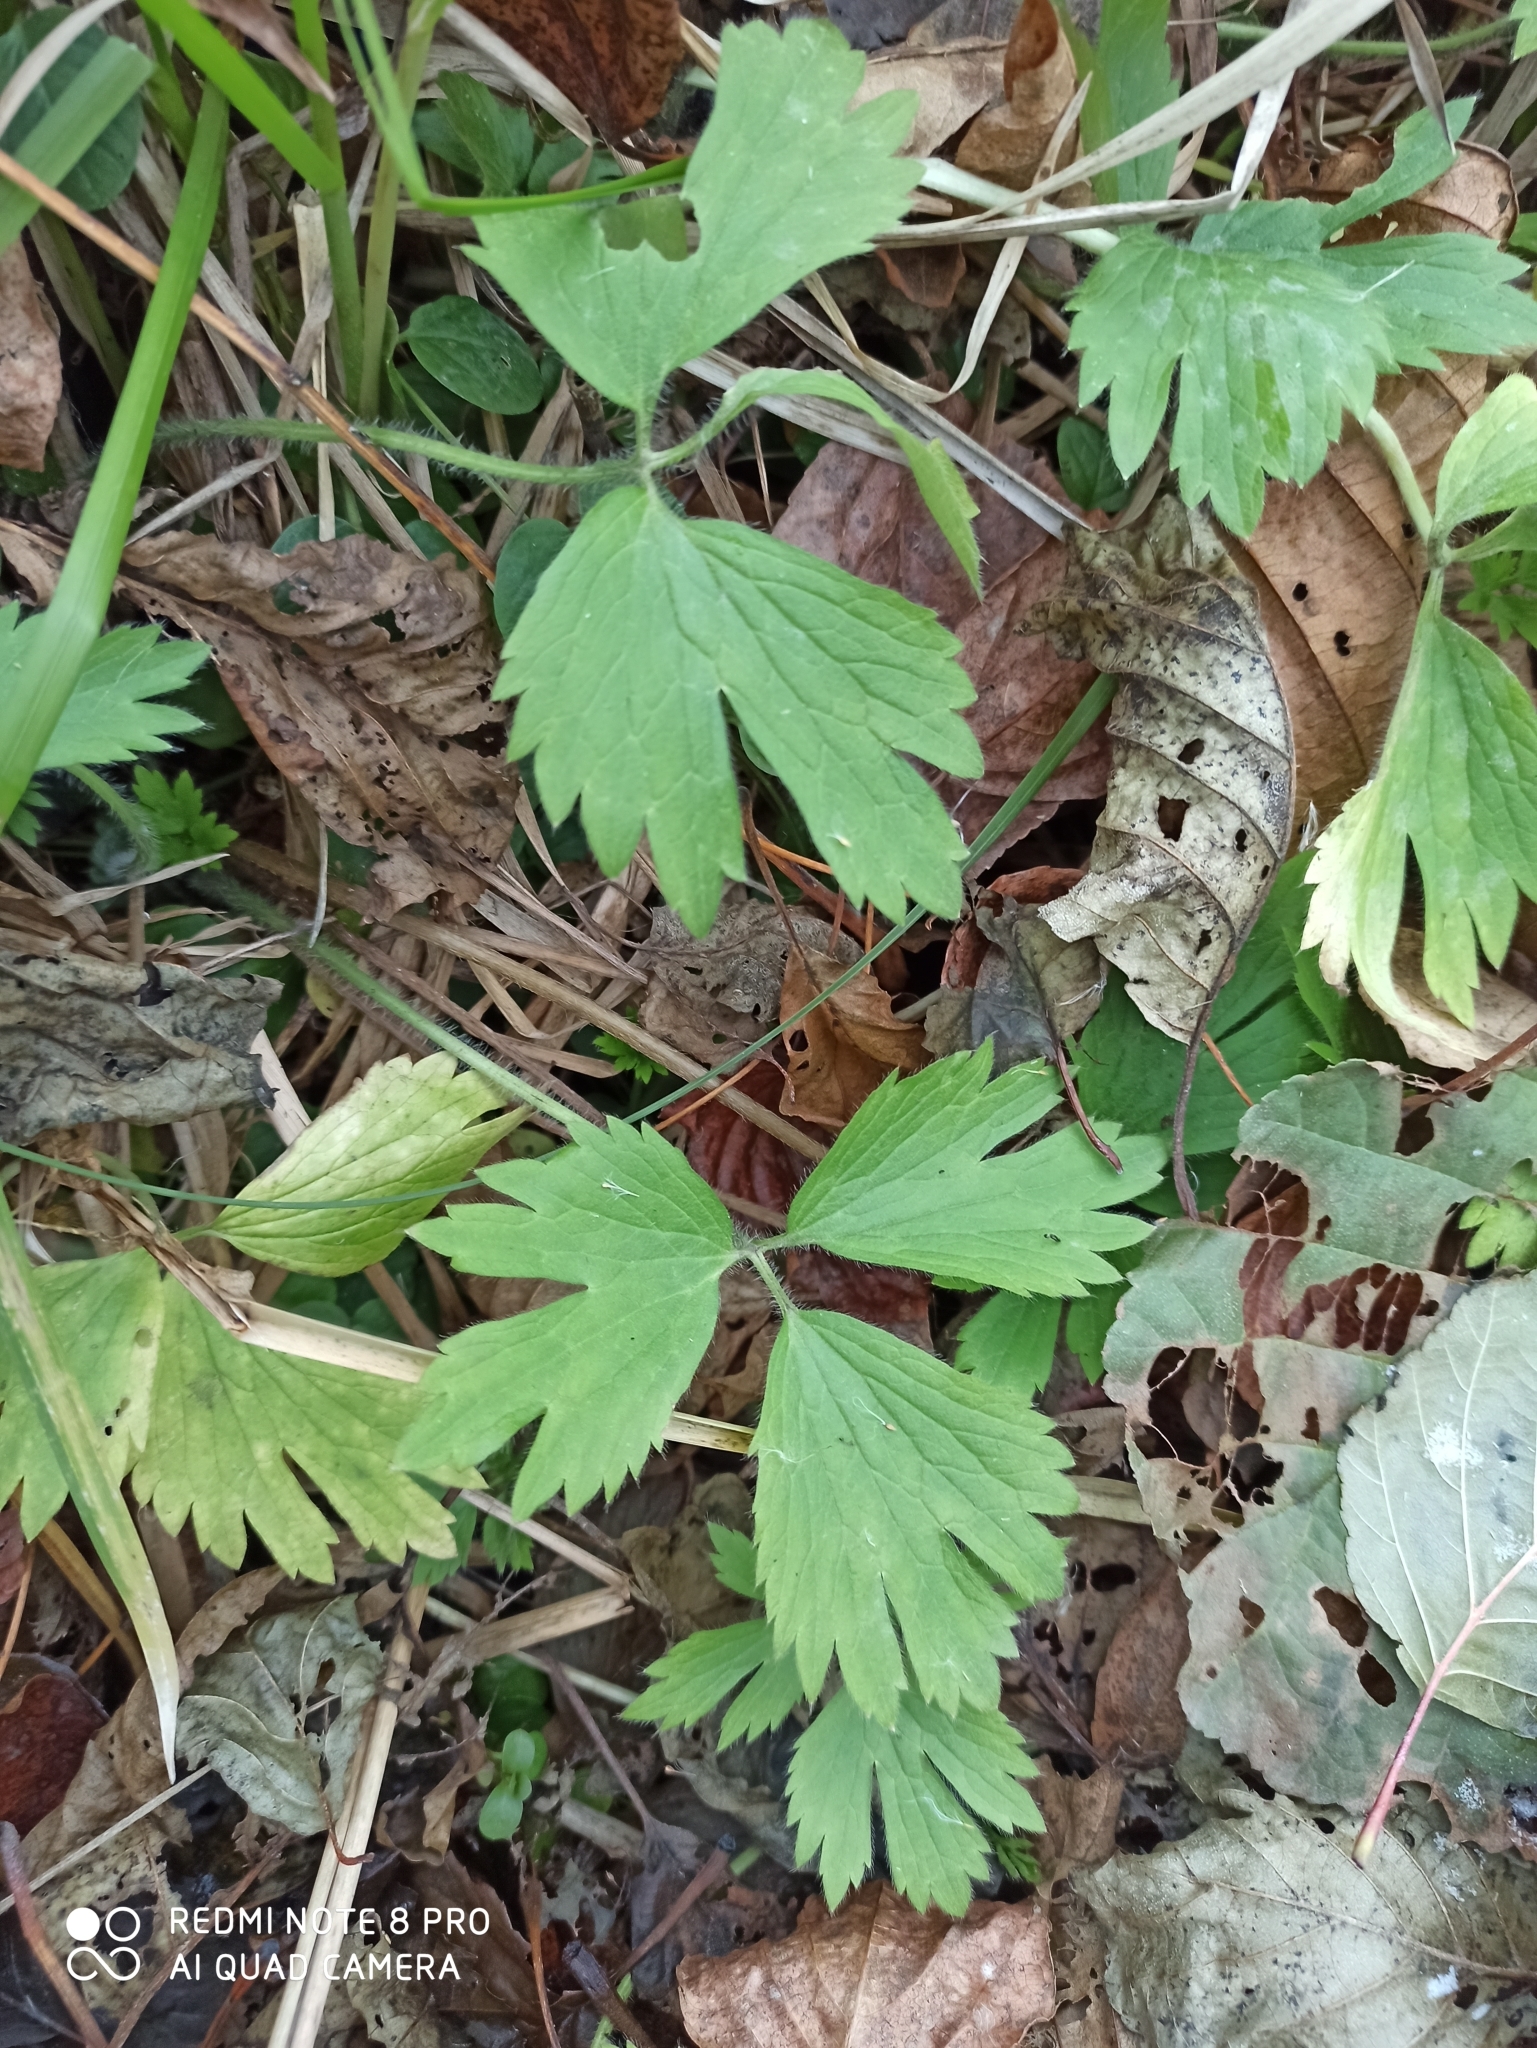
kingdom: Plantae
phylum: Tracheophyta
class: Magnoliopsida
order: Ranunculales
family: Ranunculaceae
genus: Ranunculus
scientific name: Ranunculus repens
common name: Creeping buttercup
